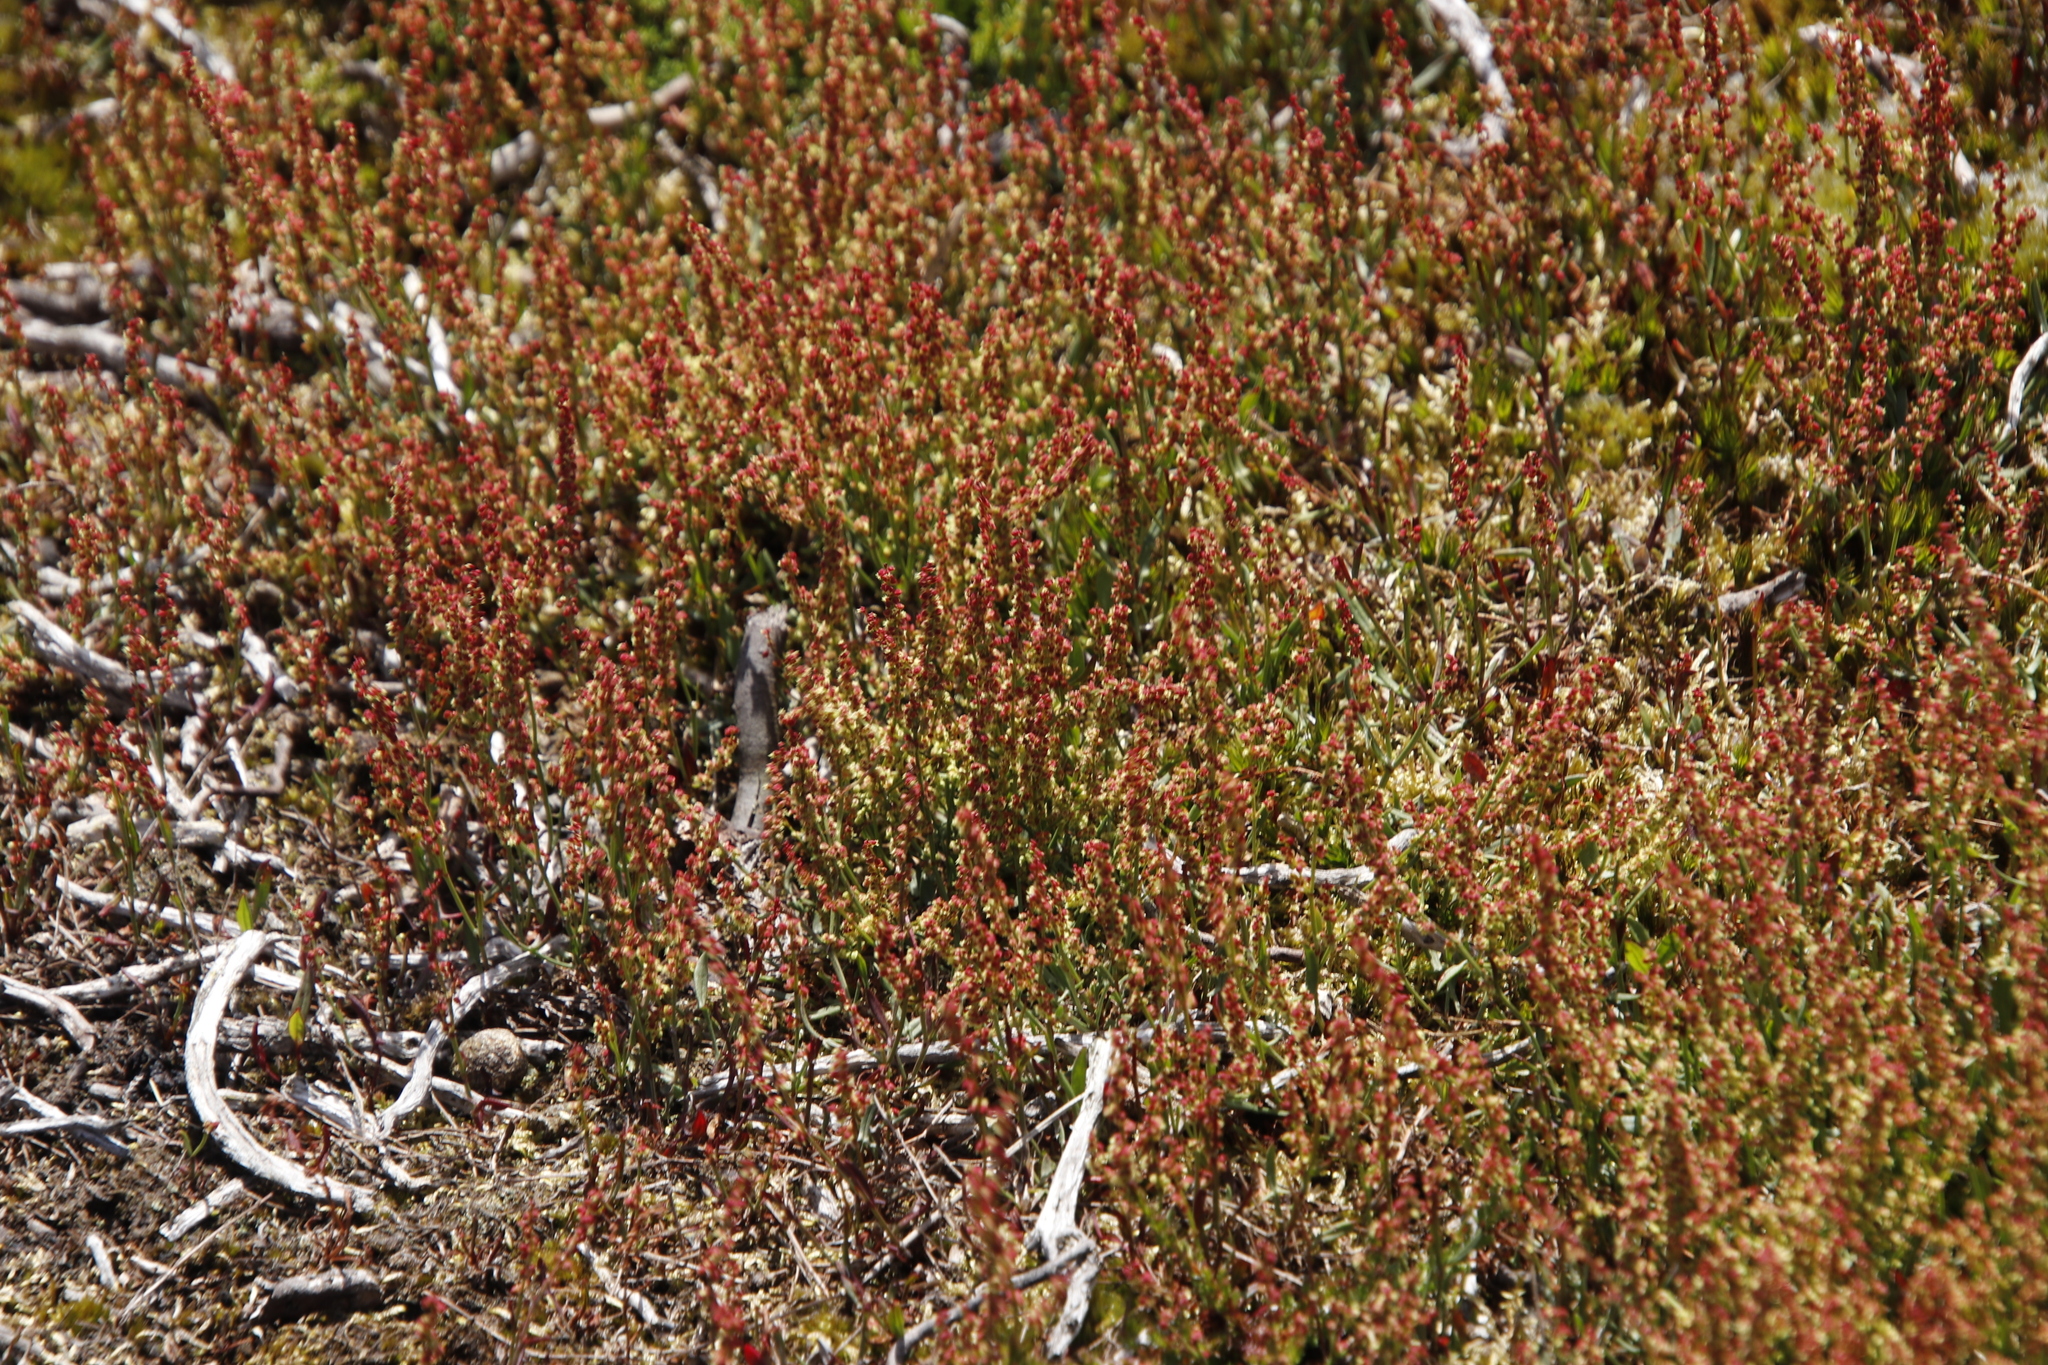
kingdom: Plantae
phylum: Tracheophyta
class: Magnoliopsida
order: Ericales
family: Ericaceae
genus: Calluna
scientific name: Calluna vulgaris
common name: Heather
